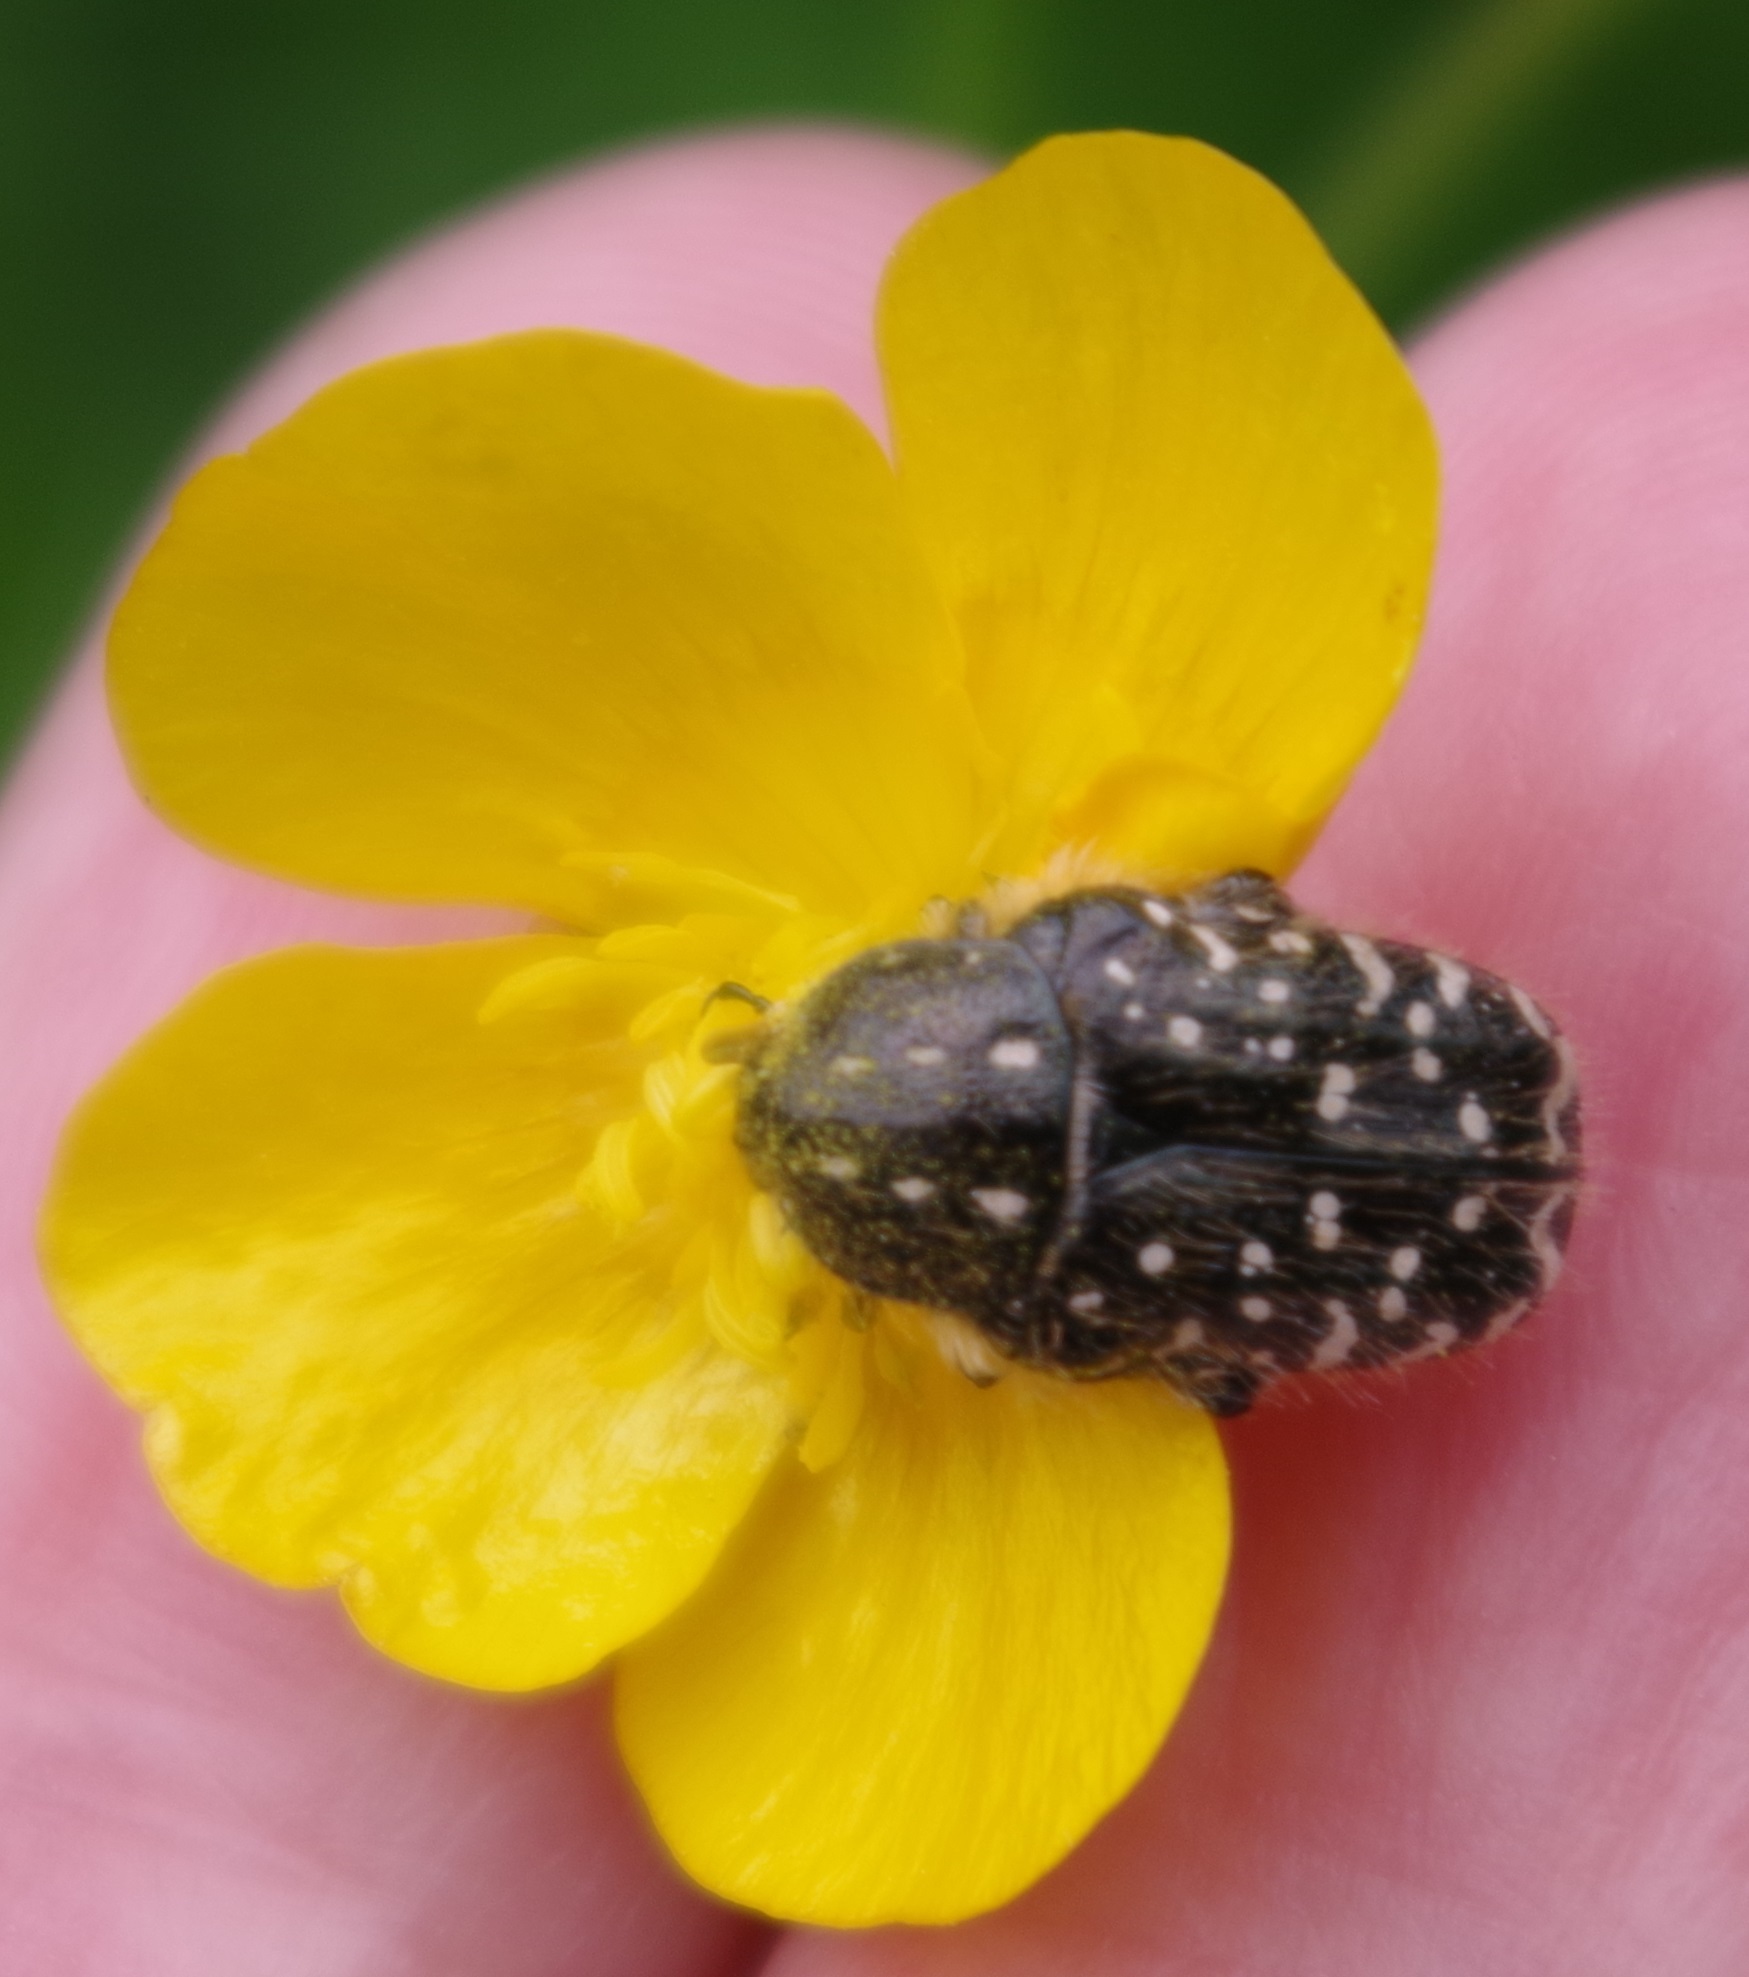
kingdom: Animalia
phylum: Arthropoda
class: Insecta
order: Coleoptera
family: Scarabaeidae
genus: Oxythyrea
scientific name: Oxythyrea funesta
